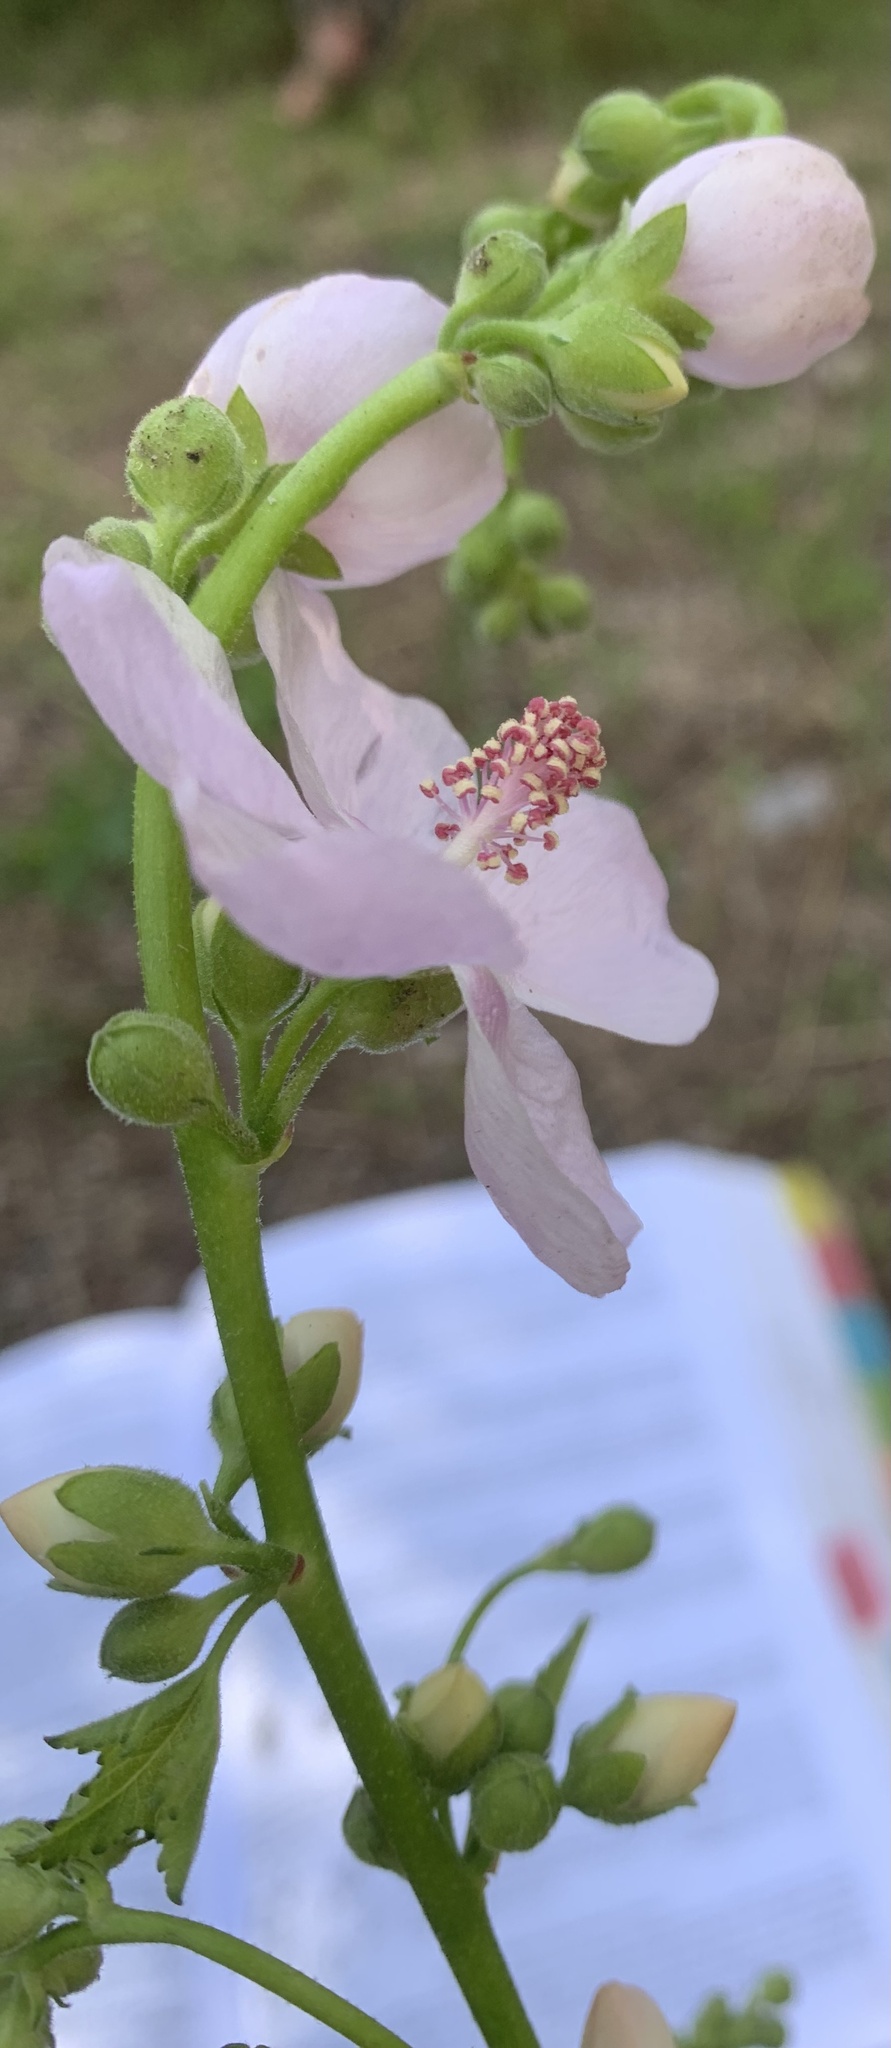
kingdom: Plantae
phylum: Tracheophyta
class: Magnoliopsida
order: Malvales
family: Malvaceae
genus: Iliamna
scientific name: Iliamna rivularis
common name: Wild hollyhock
